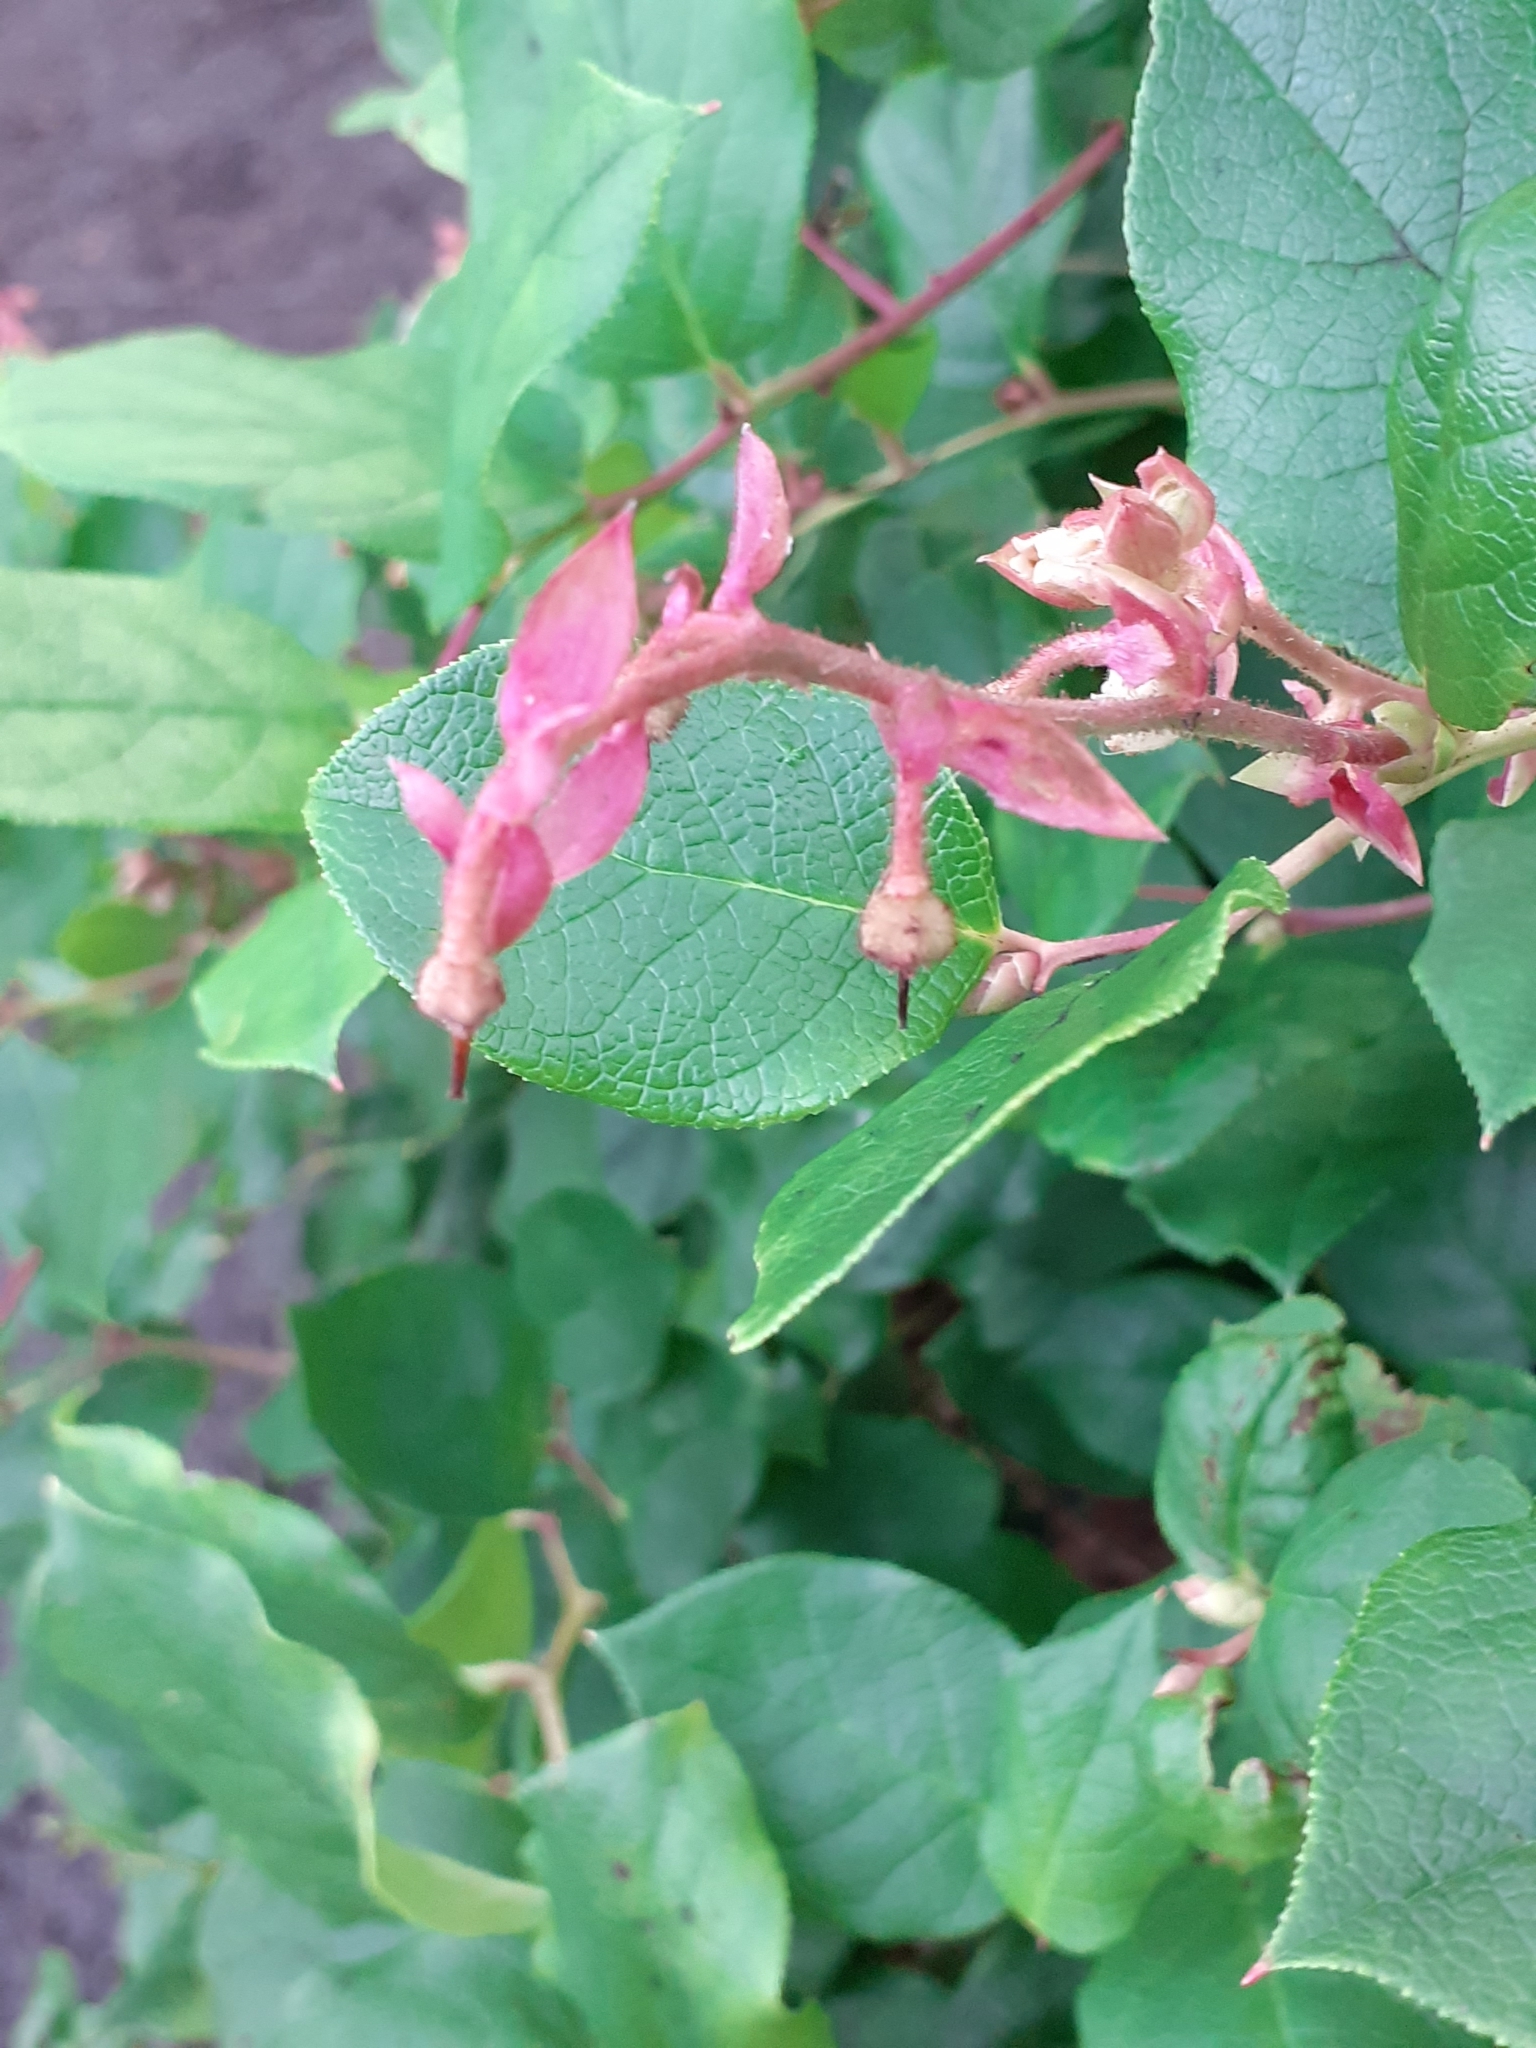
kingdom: Plantae
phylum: Tracheophyta
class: Magnoliopsida
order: Ericales
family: Ericaceae
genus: Gaultheria
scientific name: Gaultheria shallon
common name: Shallon
